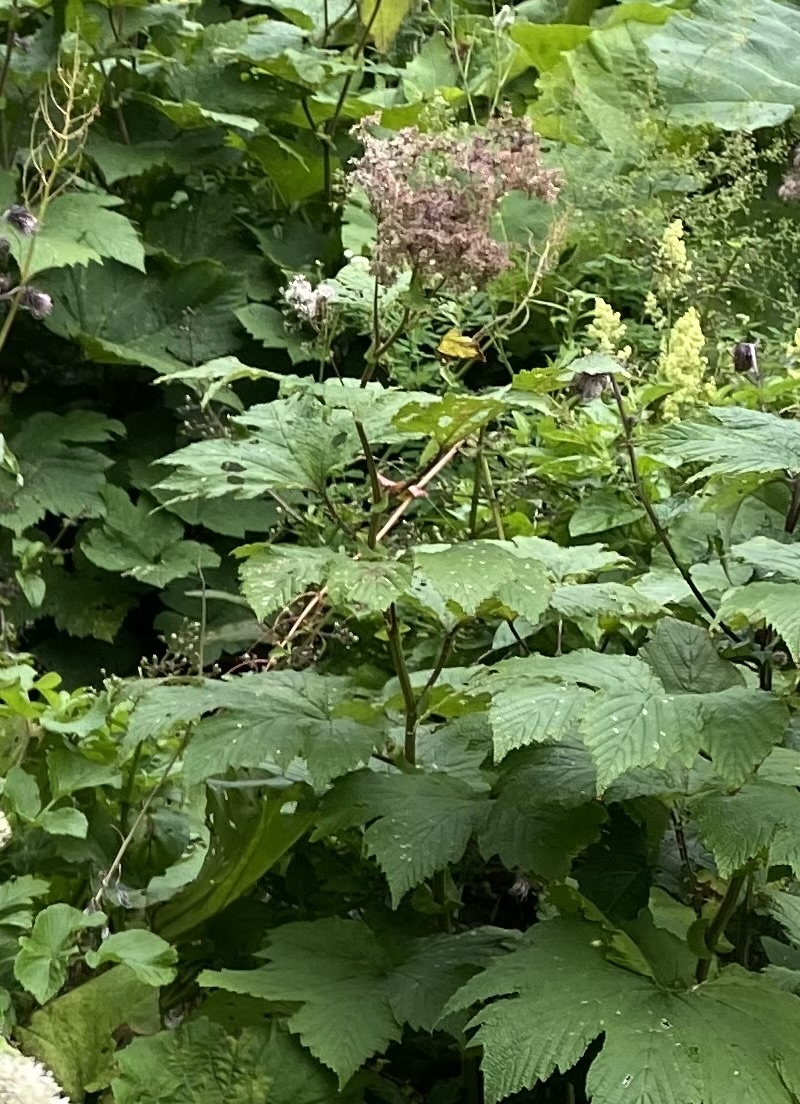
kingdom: Plantae
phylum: Tracheophyta
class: Magnoliopsida
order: Rosales
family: Rosaceae
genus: Filipendula
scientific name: Filipendula camtschatica
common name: Giant meadowsweet
